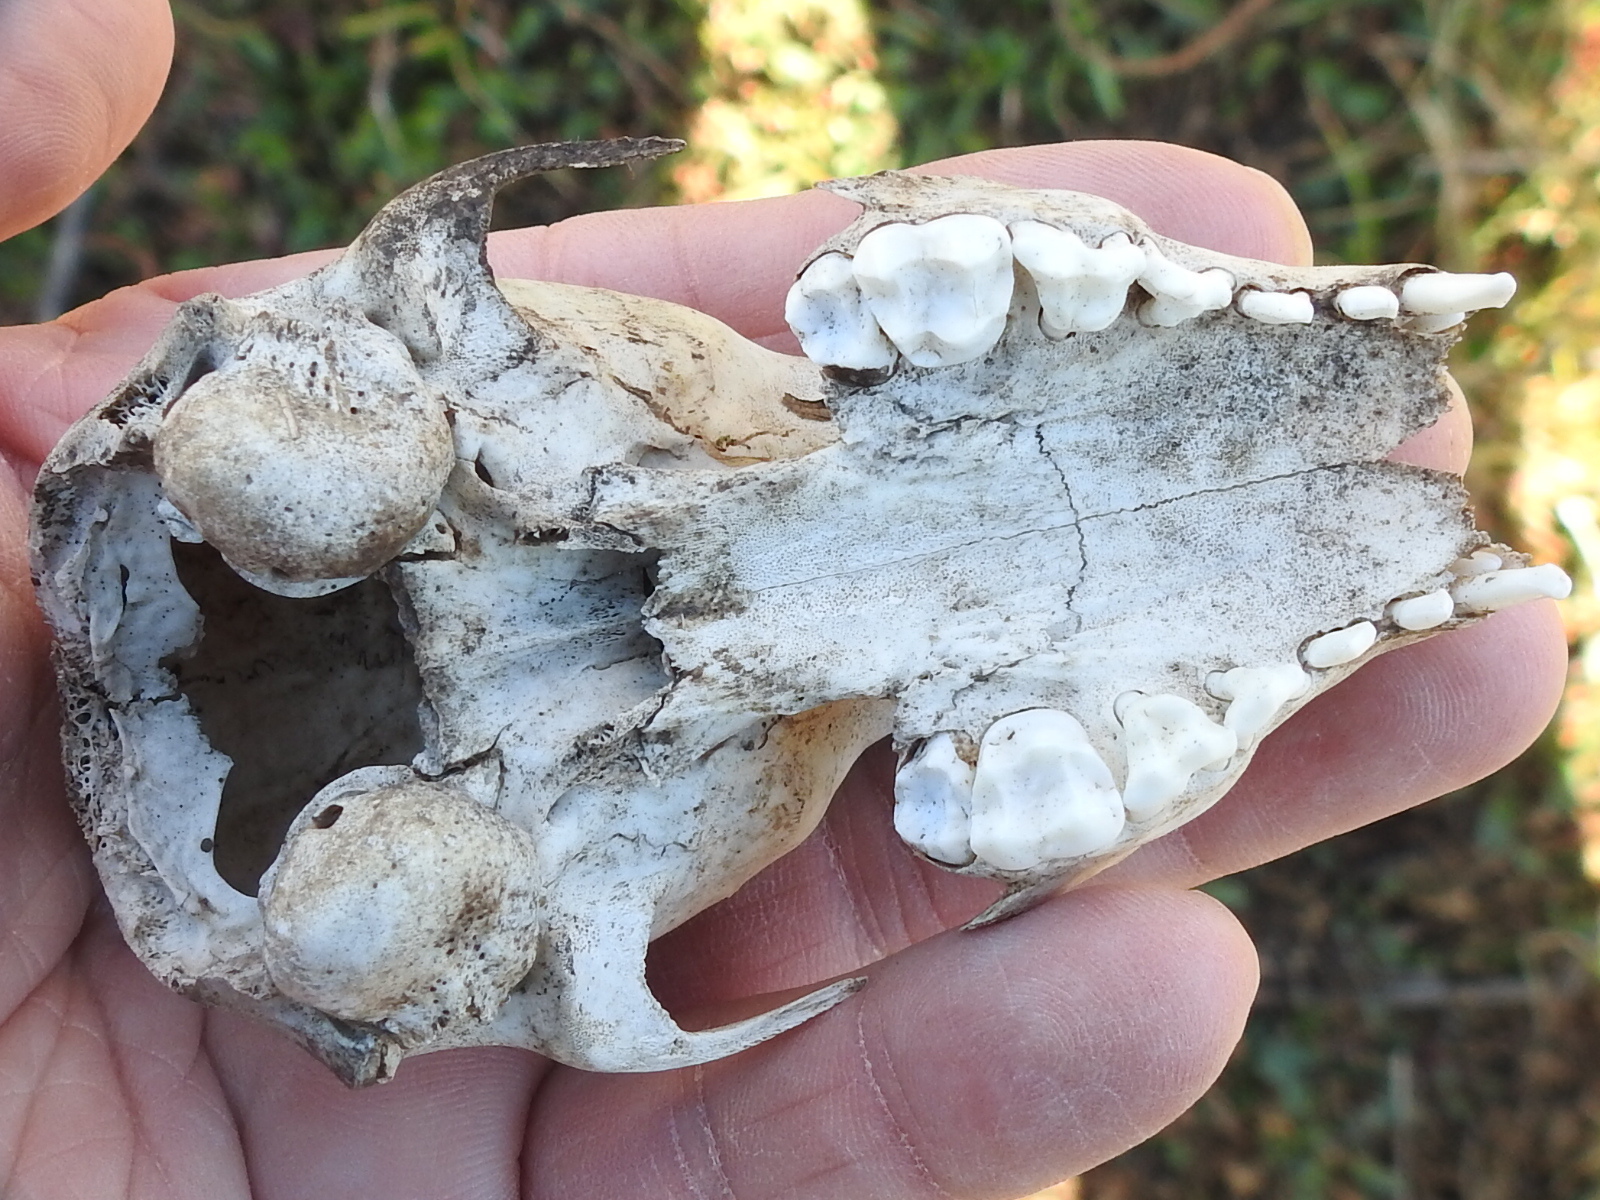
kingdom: Animalia
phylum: Chordata
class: Mammalia
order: Carnivora
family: Procyonidae
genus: Procyon
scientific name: Procyon lotor
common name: Raccoon
